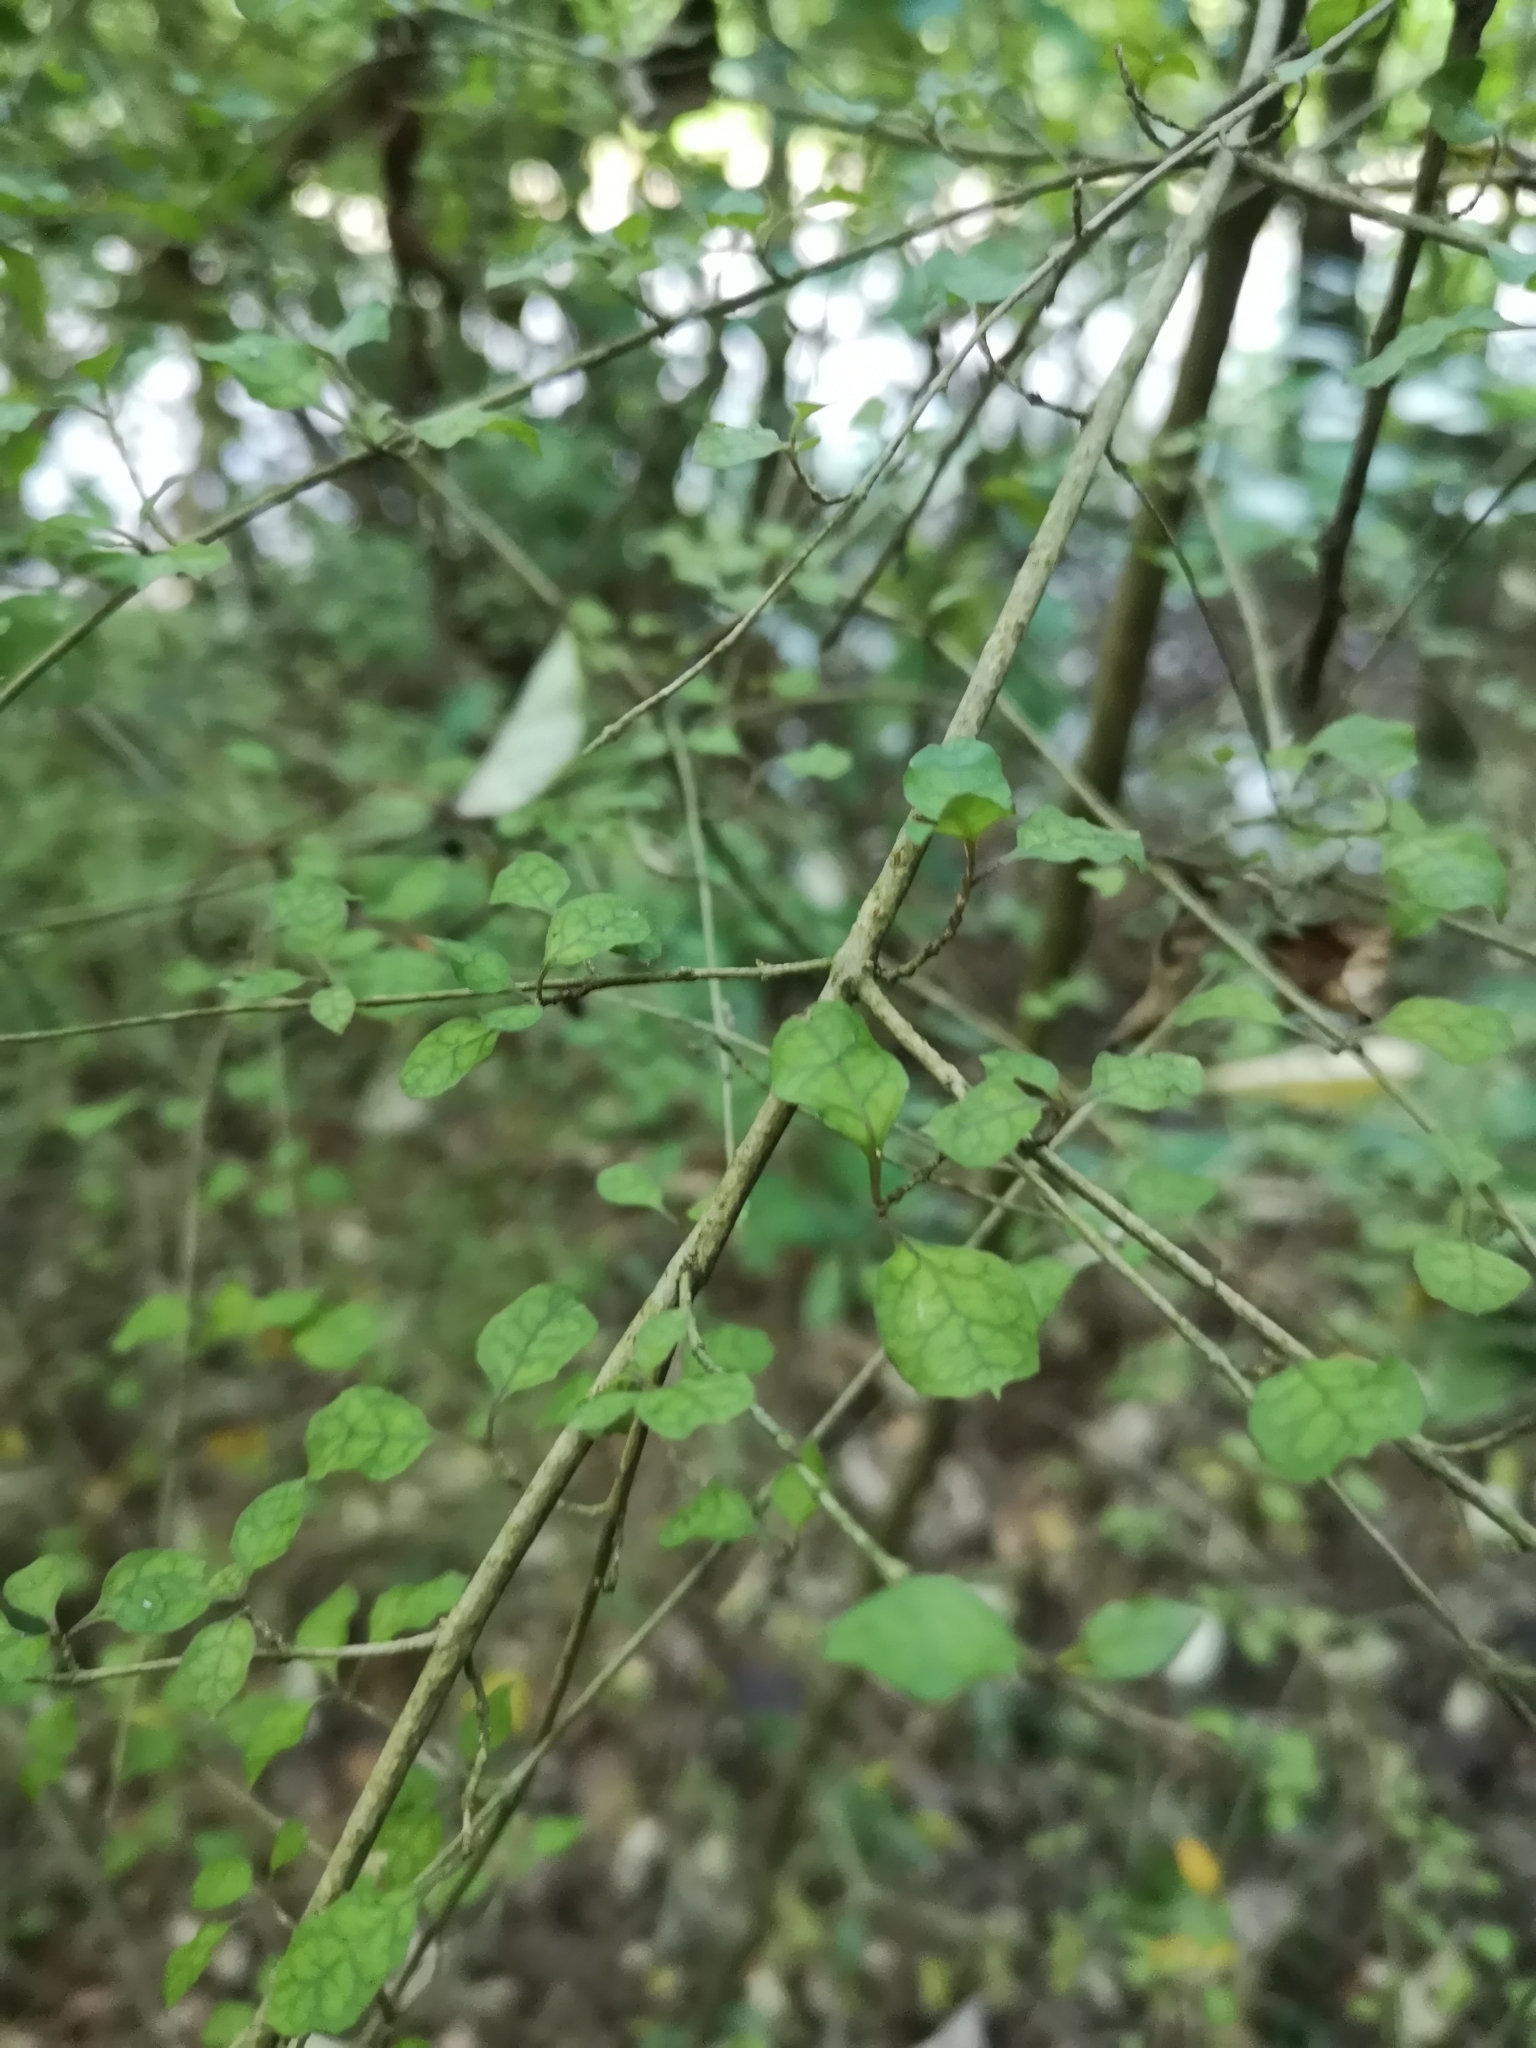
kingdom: Plantae
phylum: Tracheophyta
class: Magnoliopsida
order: Gentianales
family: Rubiaceae
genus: Coprosma
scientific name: Coprosma areolata
